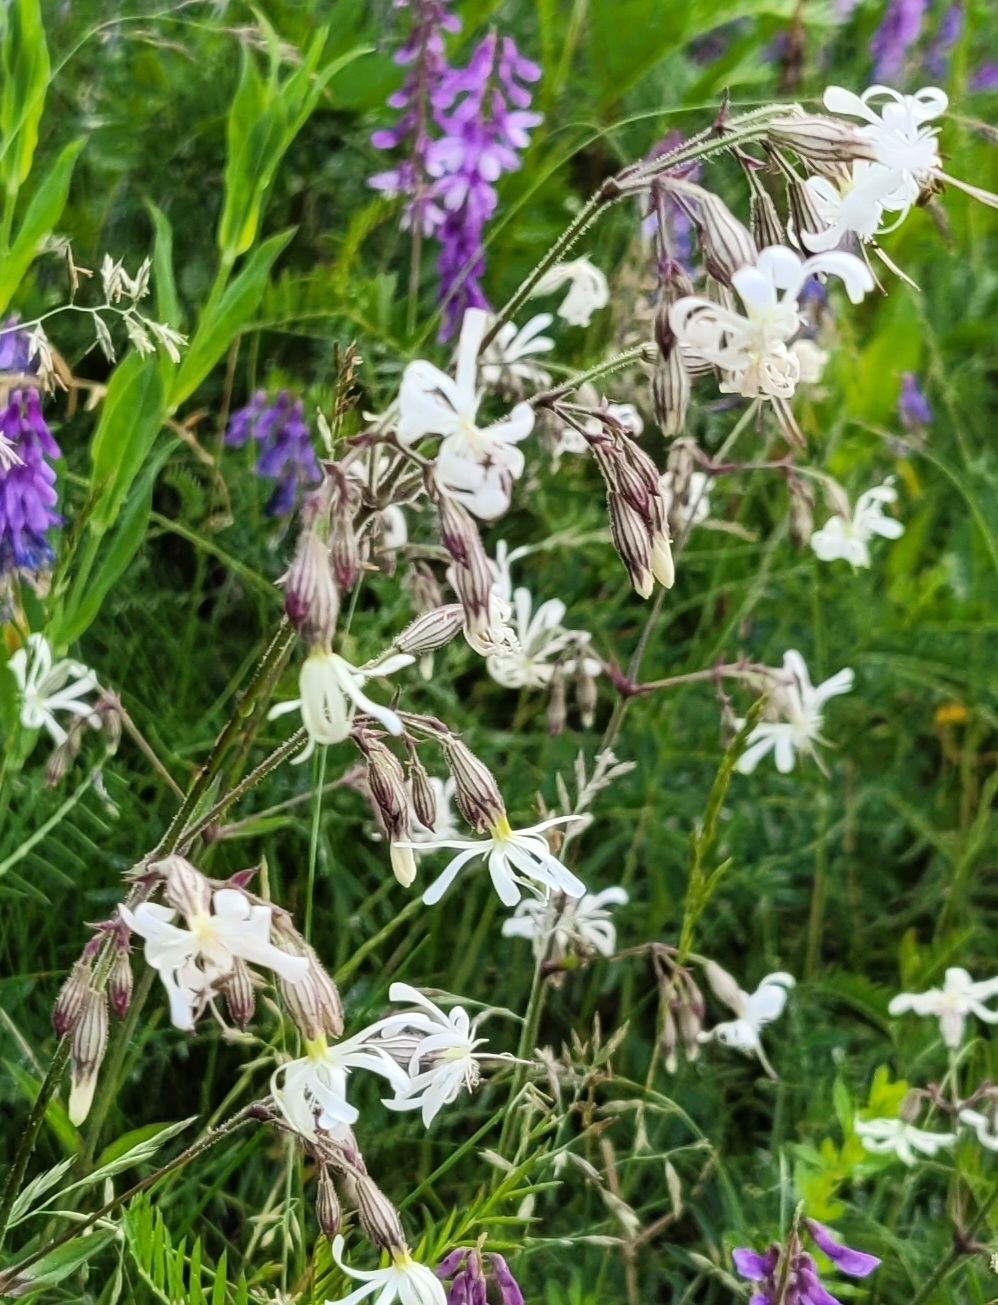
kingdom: Plantae
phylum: Tracheophyta
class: Magnoliopsida
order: Caryophyllales
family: Caryophyllaceae
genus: Silene
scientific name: Silene nutans
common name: Nottingham catchfly
